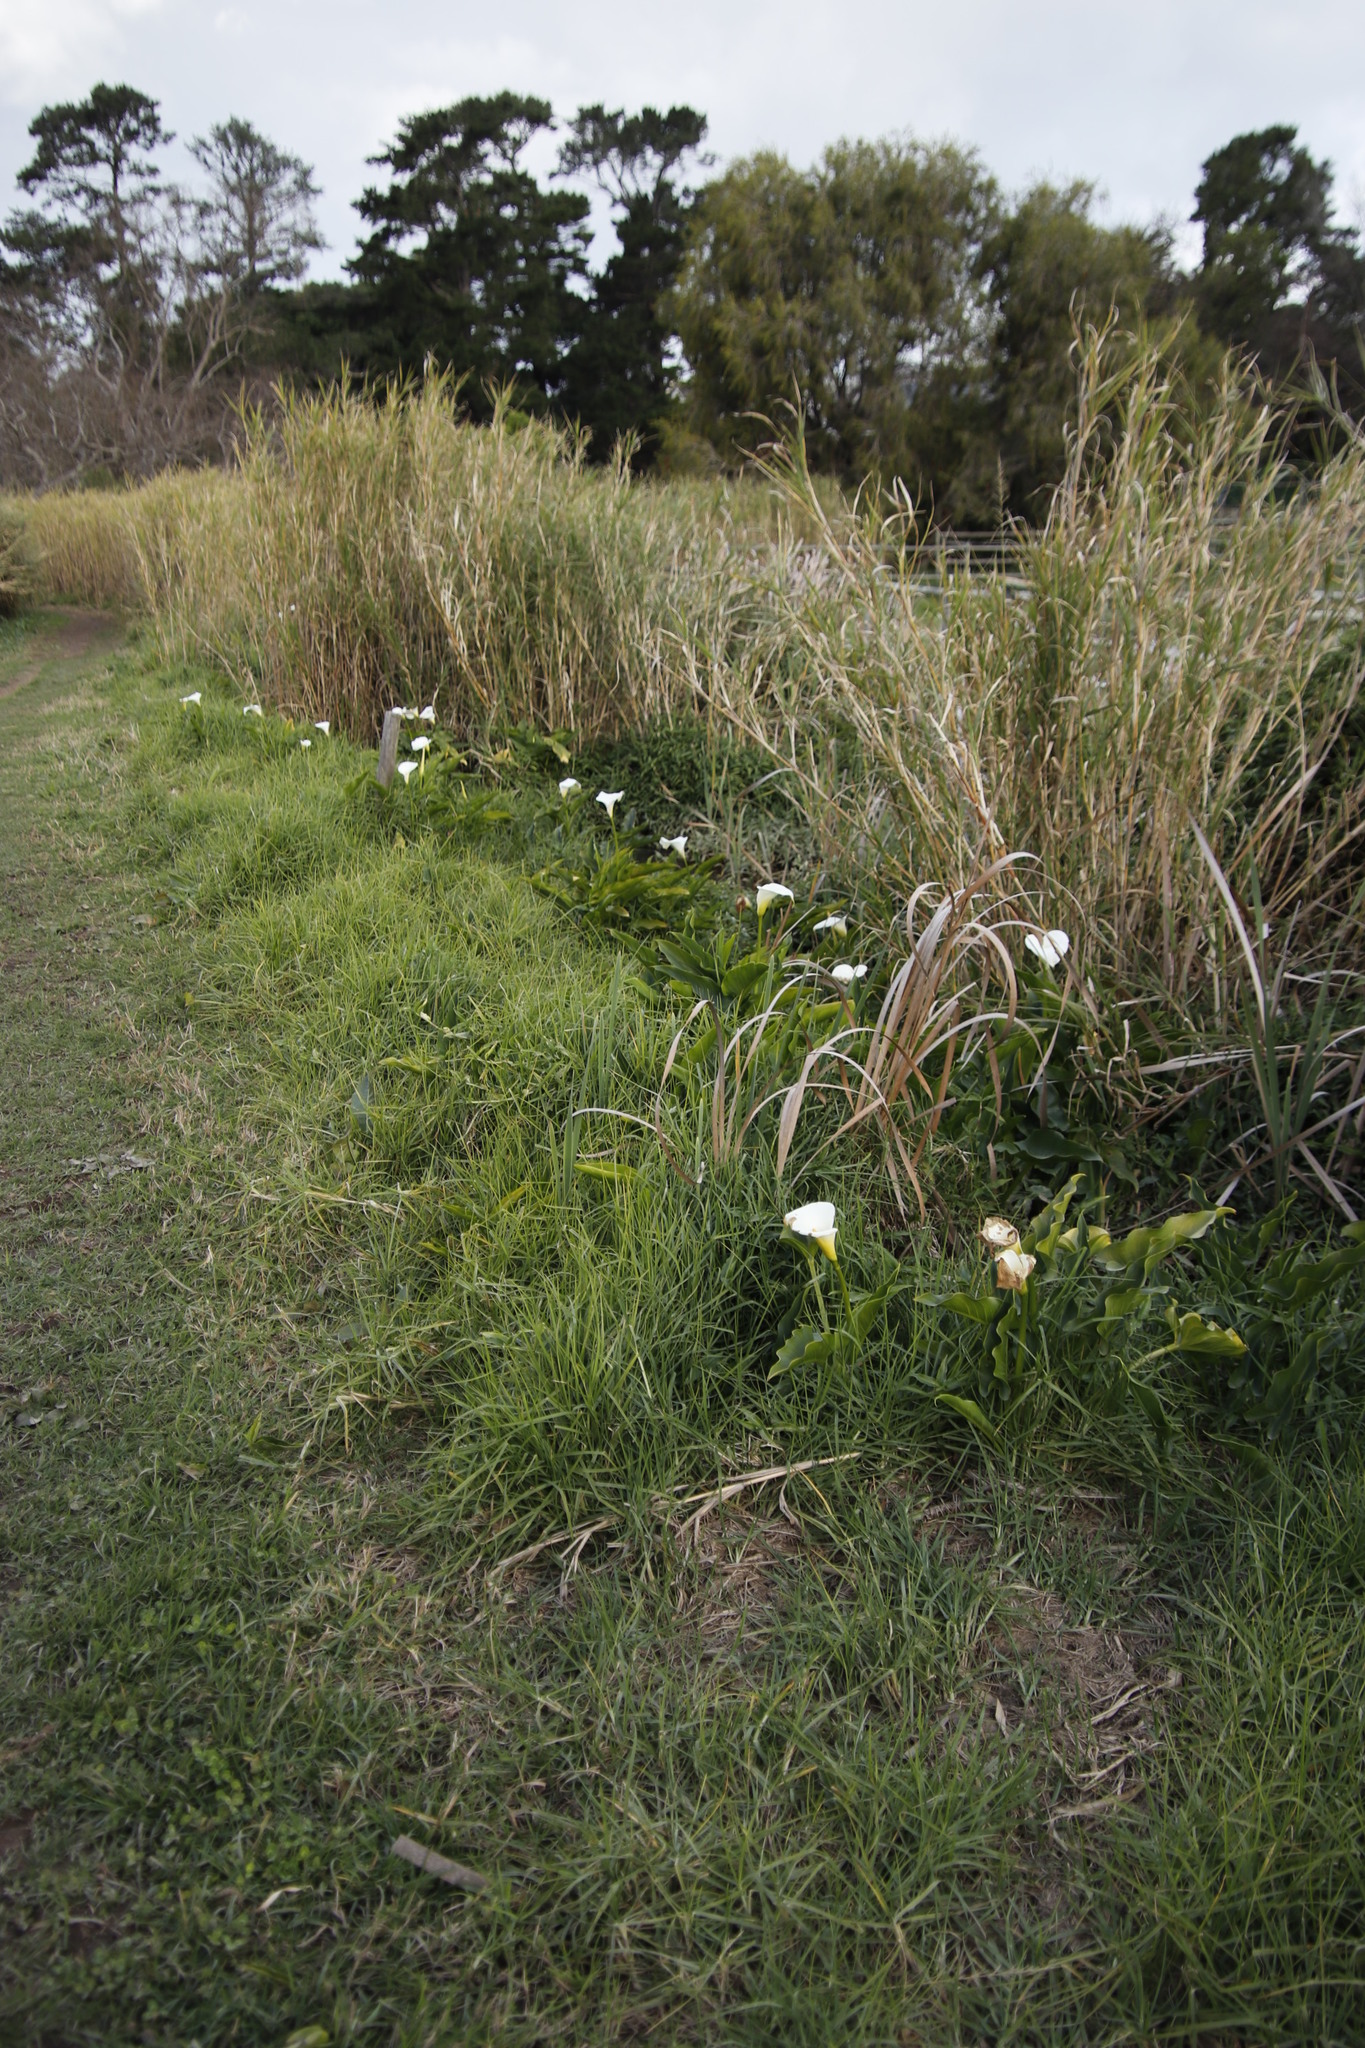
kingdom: Plantae
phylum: Tracheophyta
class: Liliopsida
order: Alismatales
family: Araceae
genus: Zantedeschia
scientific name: Zantedeschia aethiopica
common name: Altar-lily
